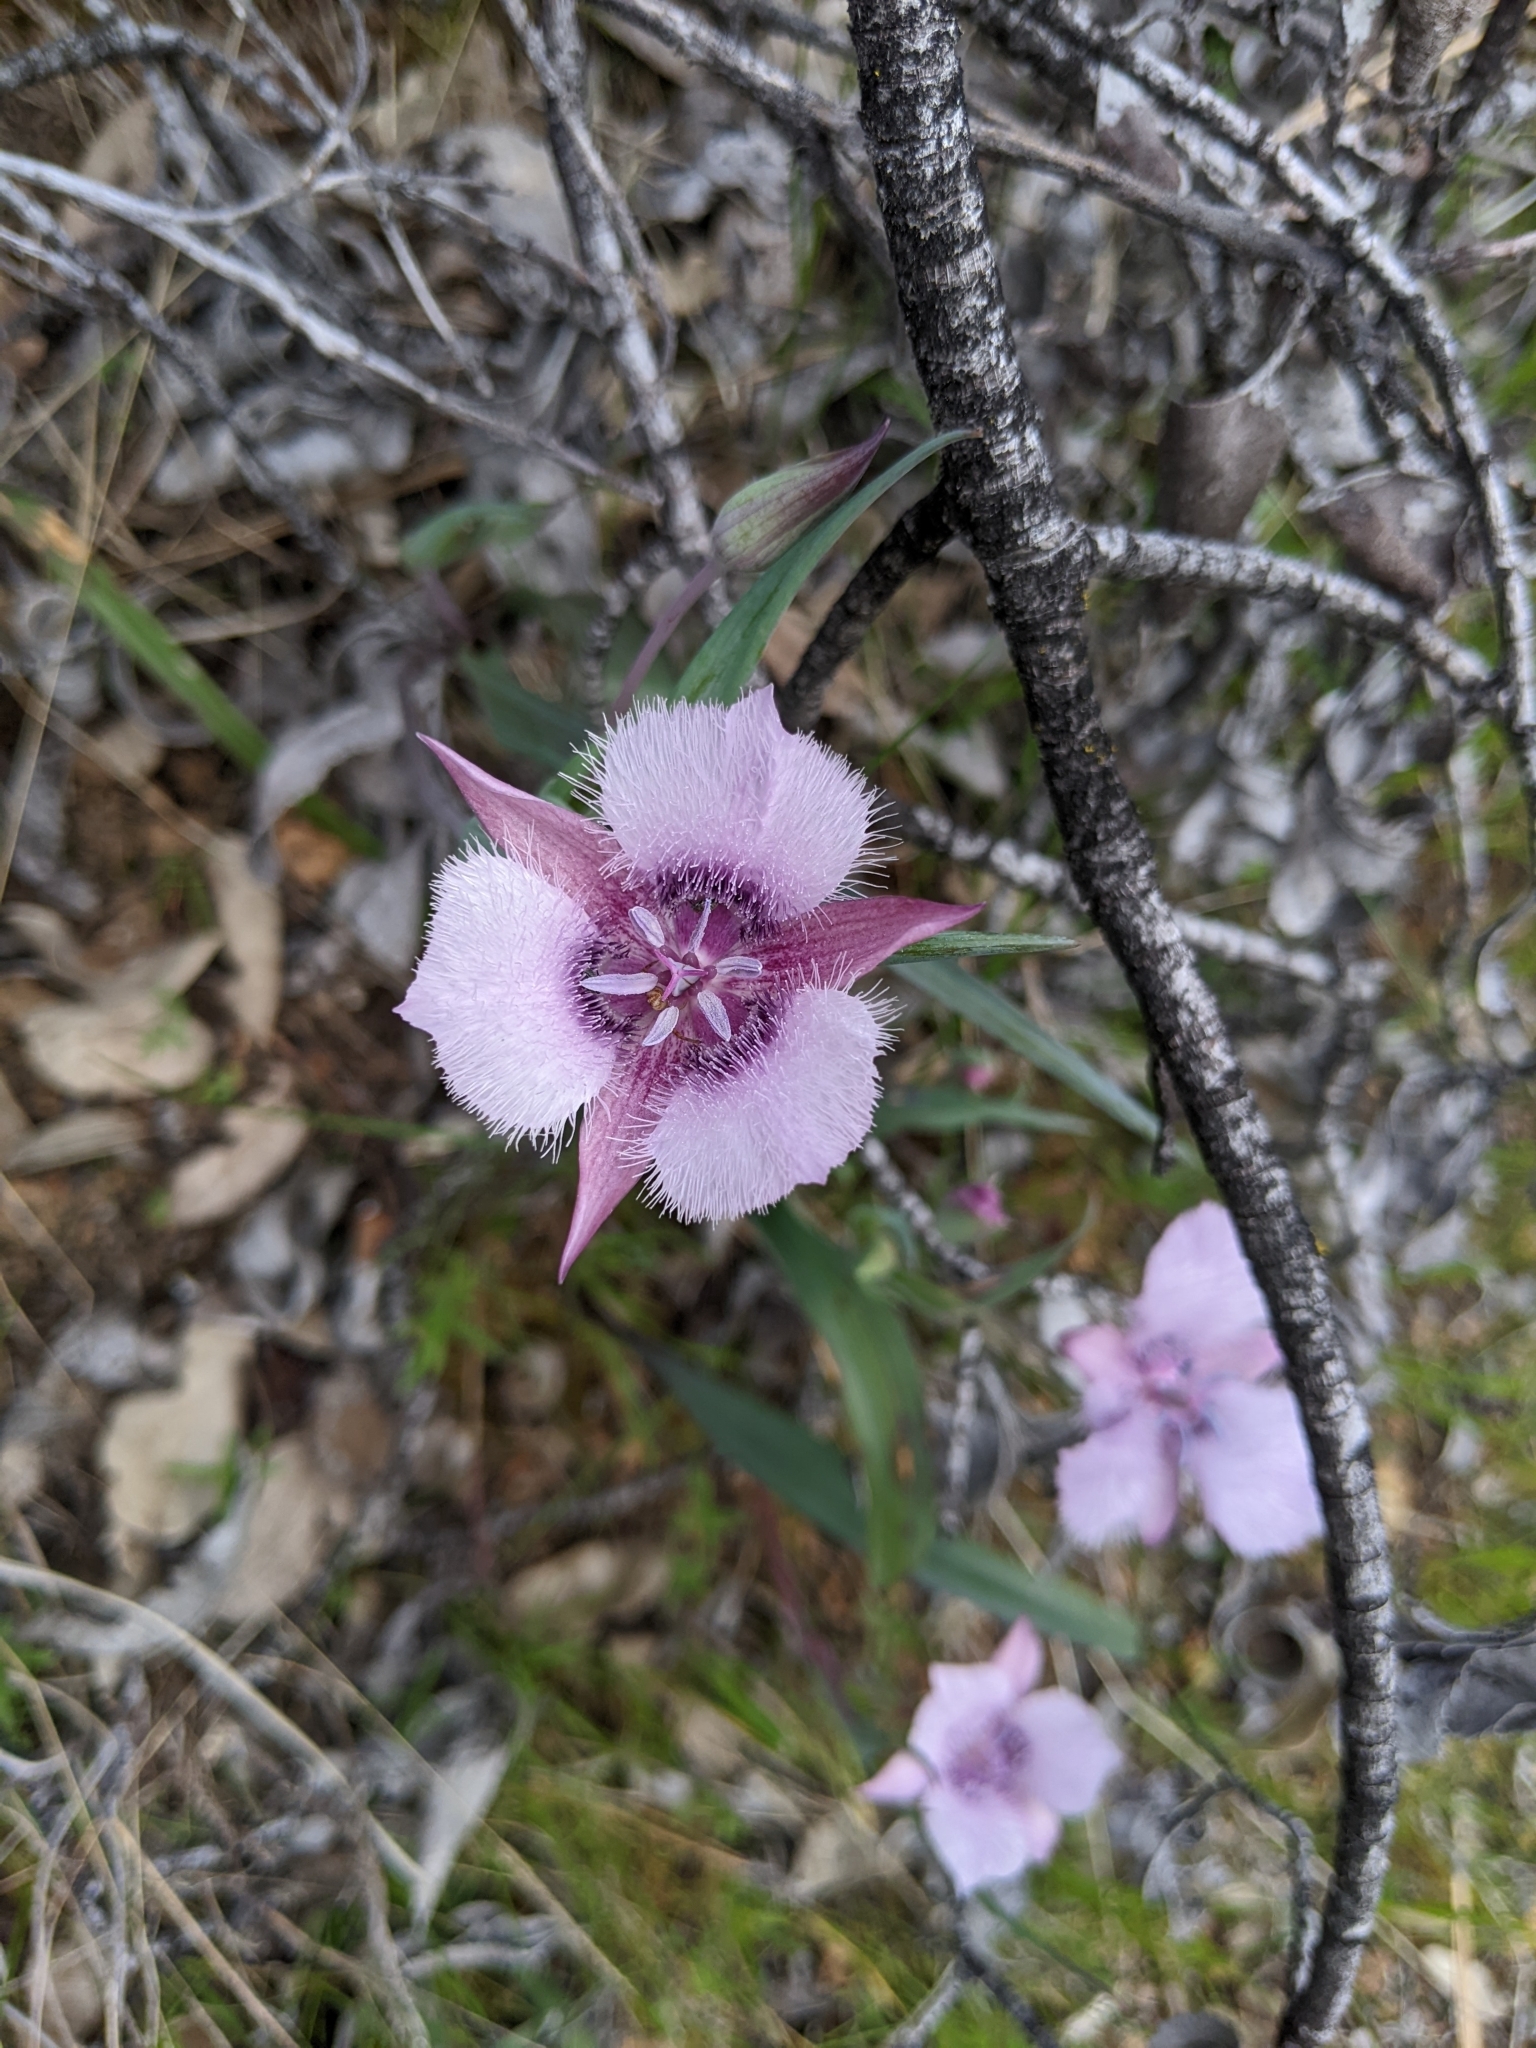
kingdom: Plantae
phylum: Tracheophyta
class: Liliopsida
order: Liliales
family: Liliaceae
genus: Calochortus
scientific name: Calochortus tolmiei
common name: Pussy-ears
